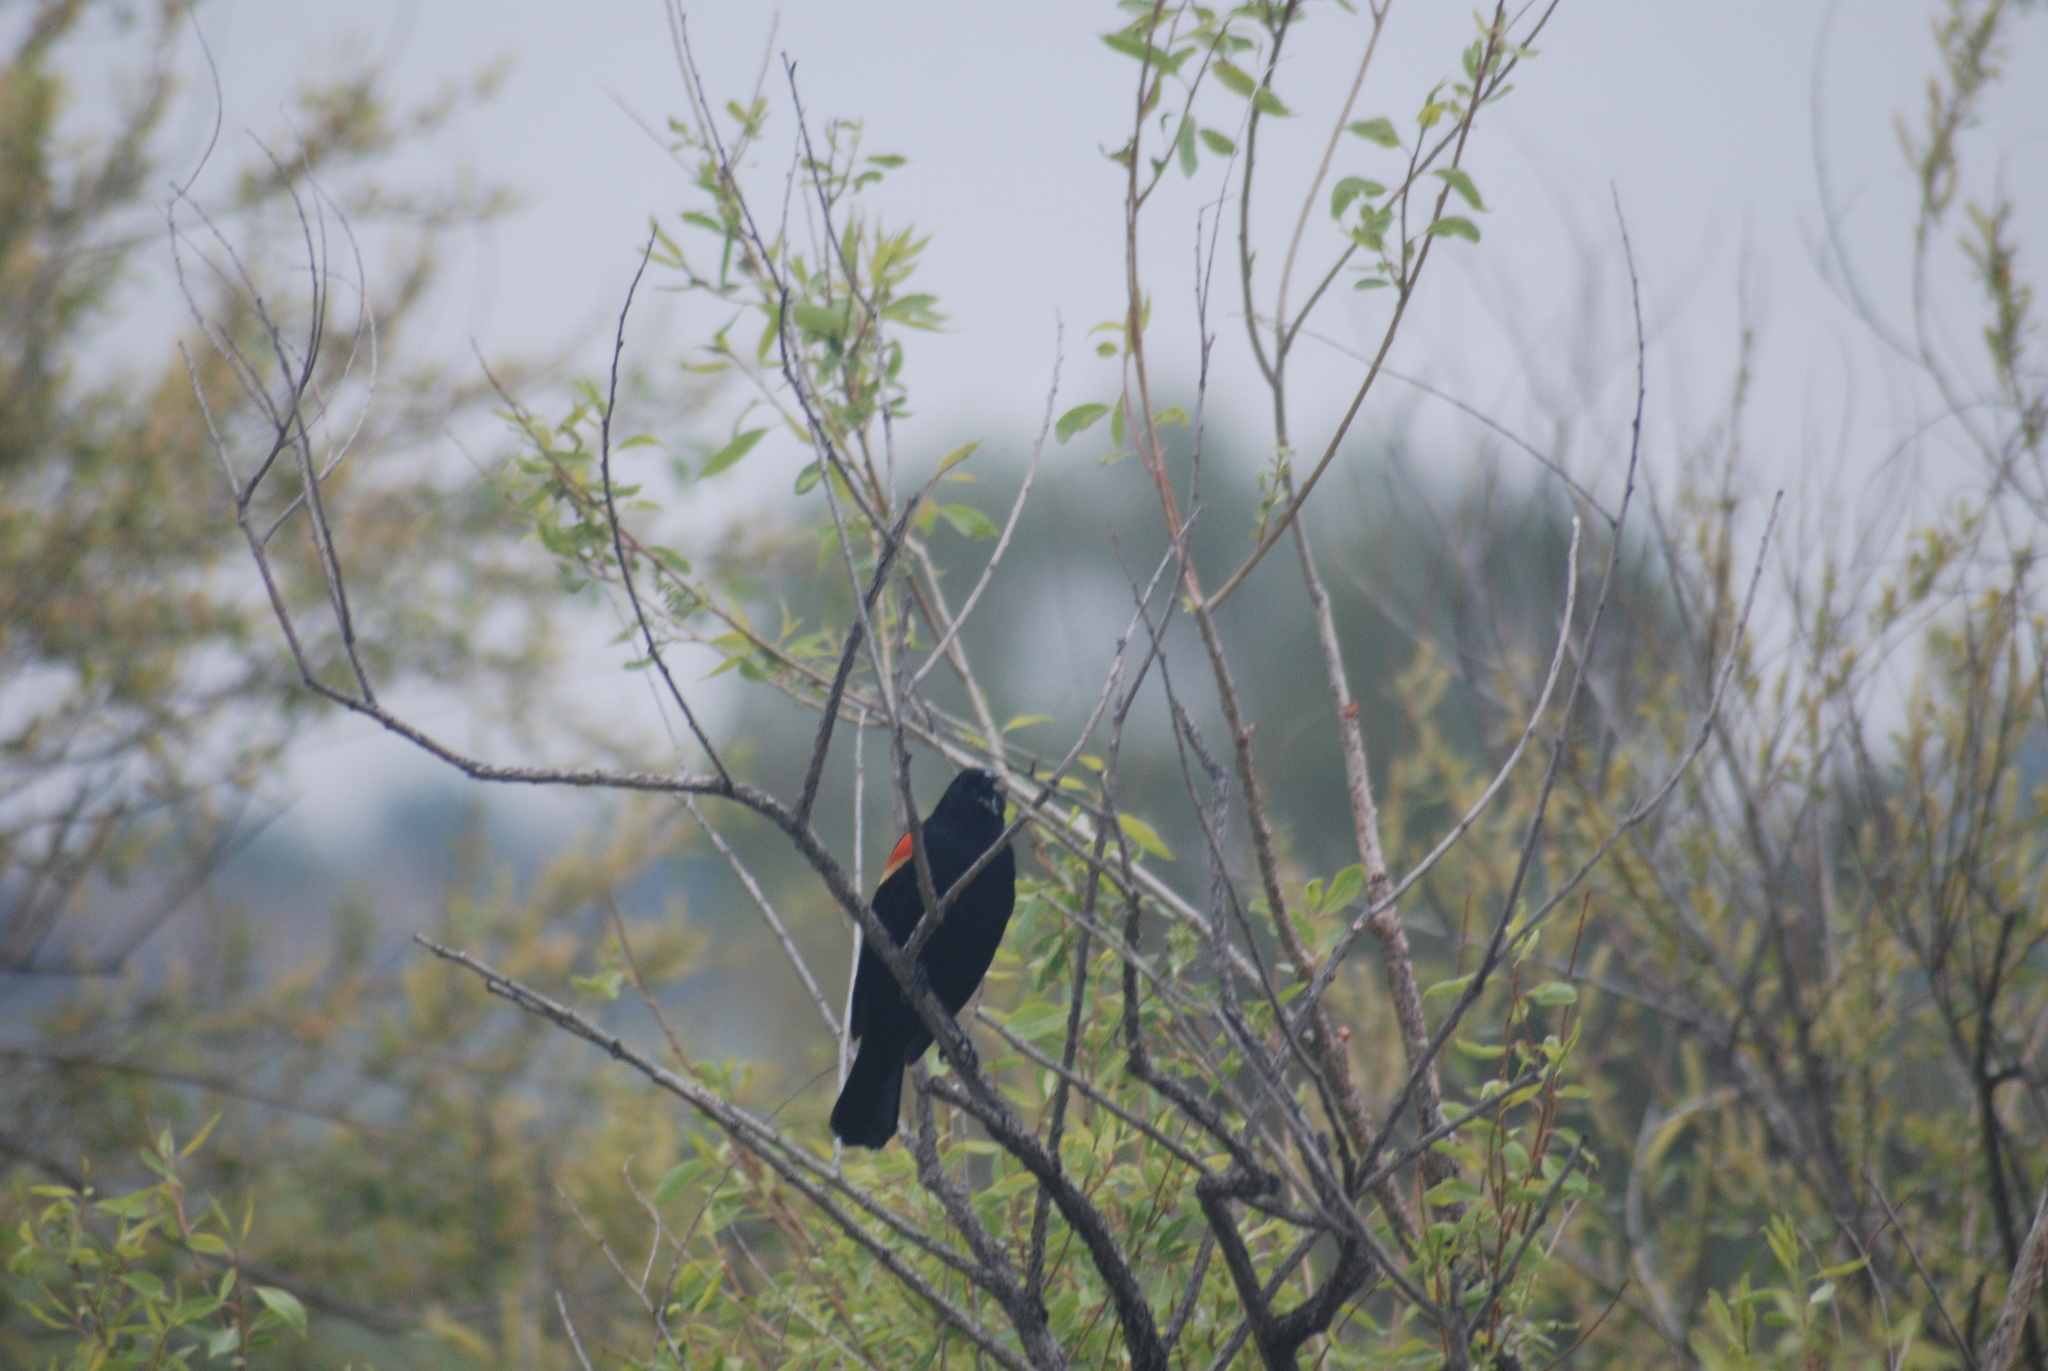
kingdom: Animalia
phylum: Chordata
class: Aves
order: Passeriformes
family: Icteridae
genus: Agelaius
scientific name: Agelaius phoeniceus
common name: Red-winged blackbird
